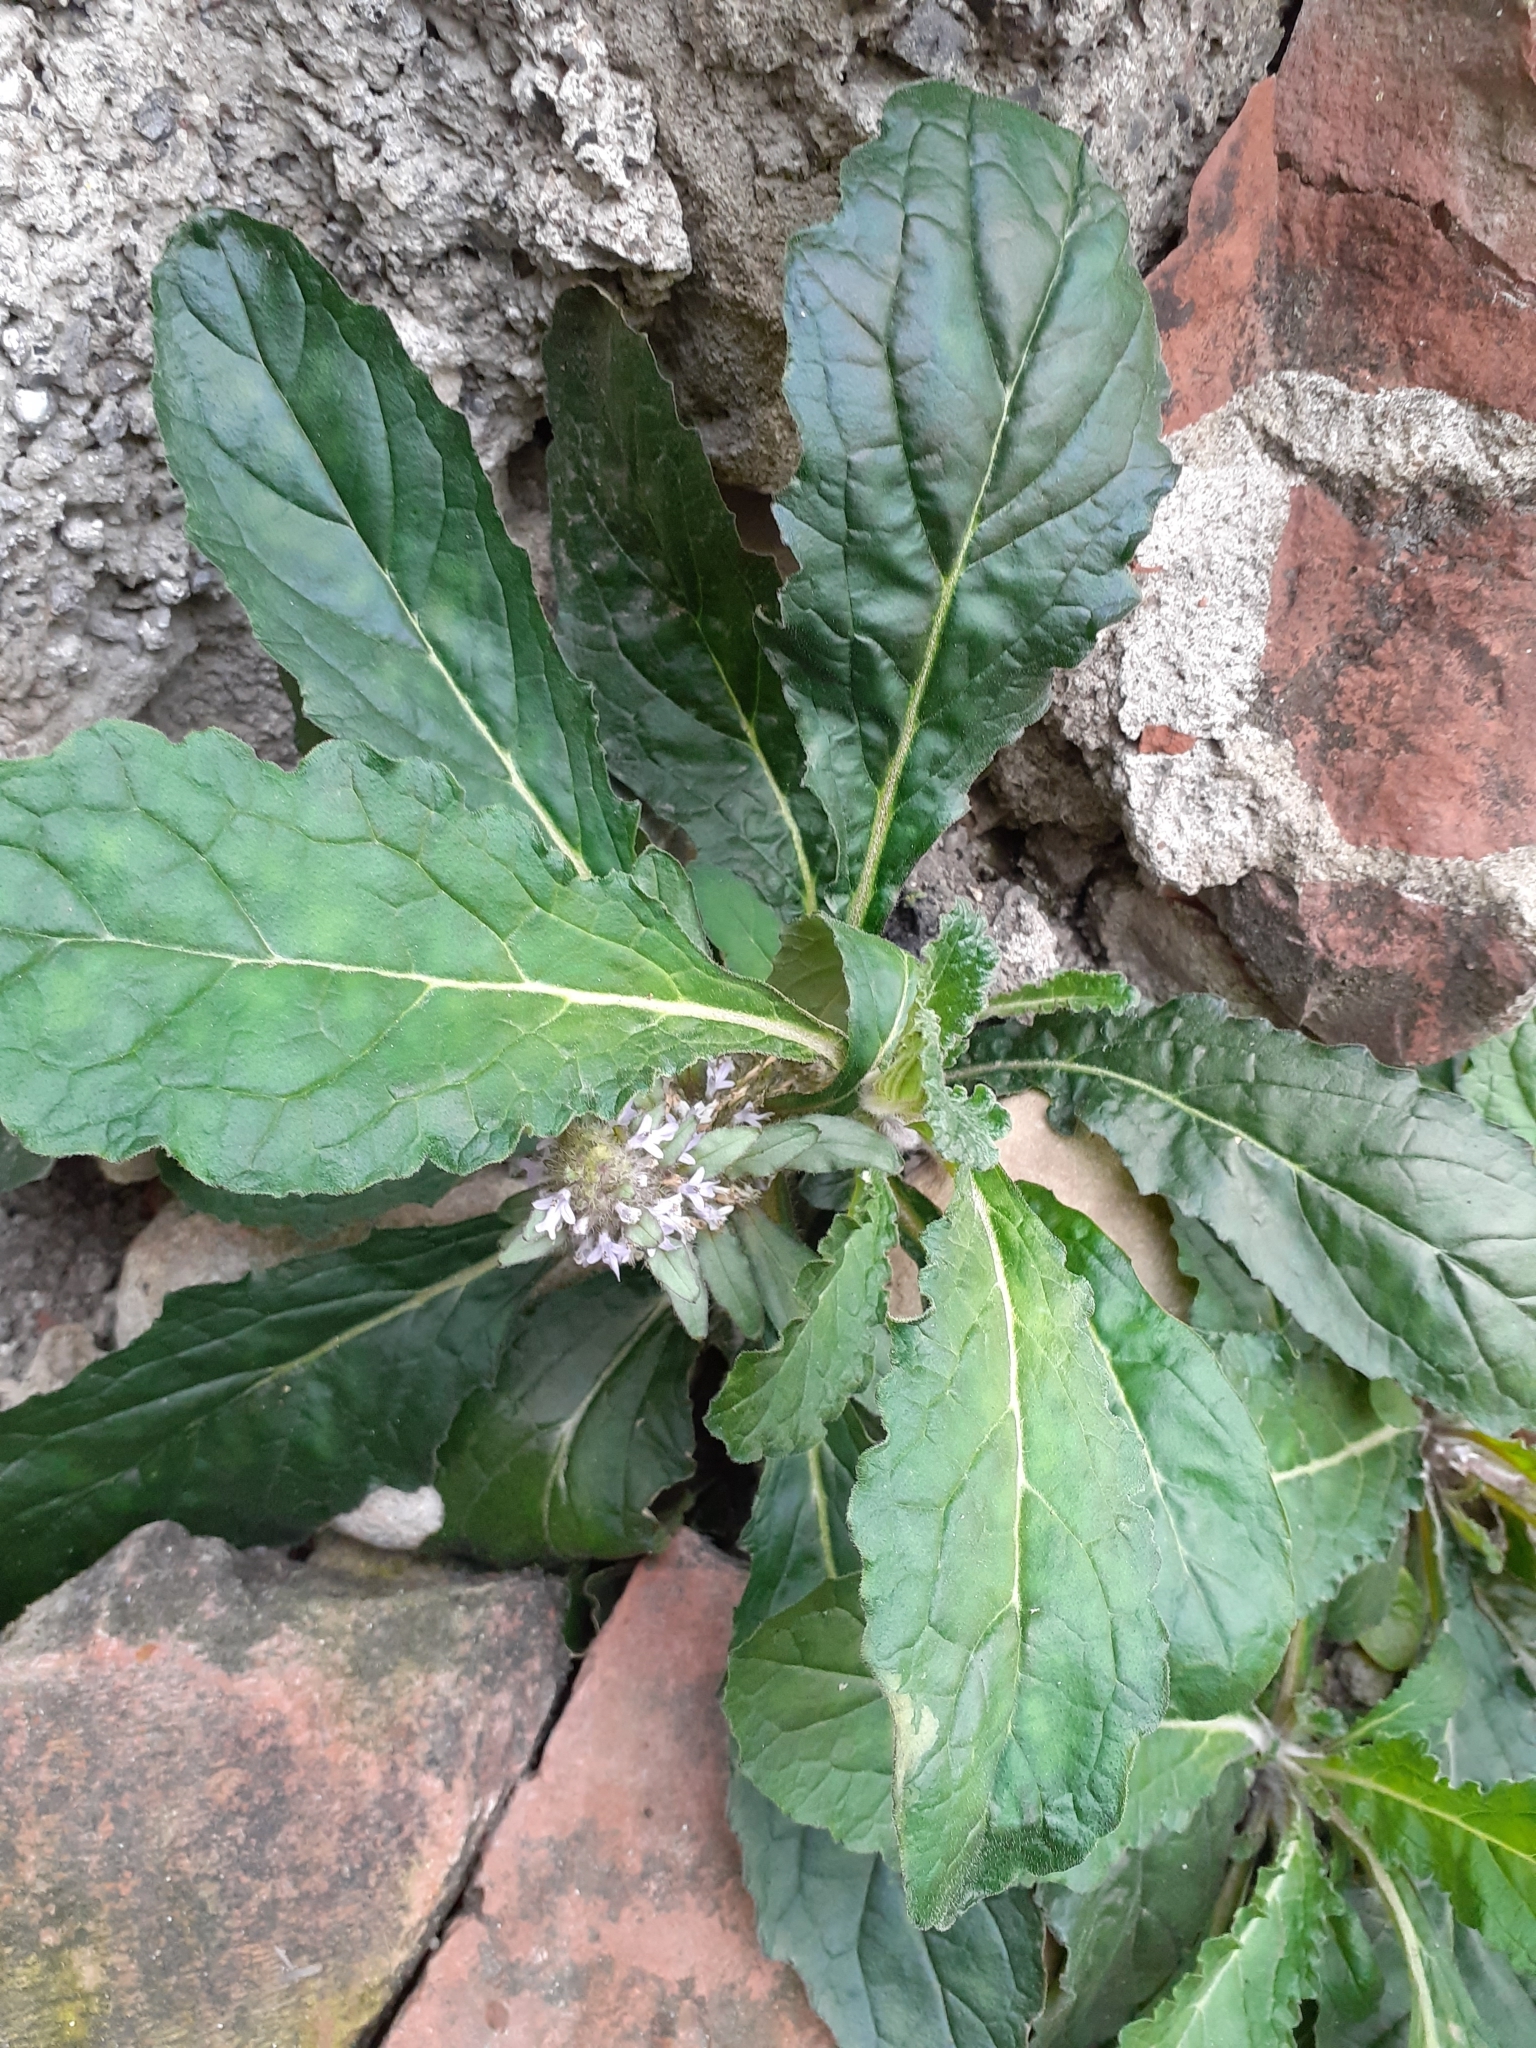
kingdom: Plantae
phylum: Tracheophyta
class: Magnoliopsida
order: Lamiales
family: Lamiaceae
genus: Ajuga
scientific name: Ajuga taiwanensis
